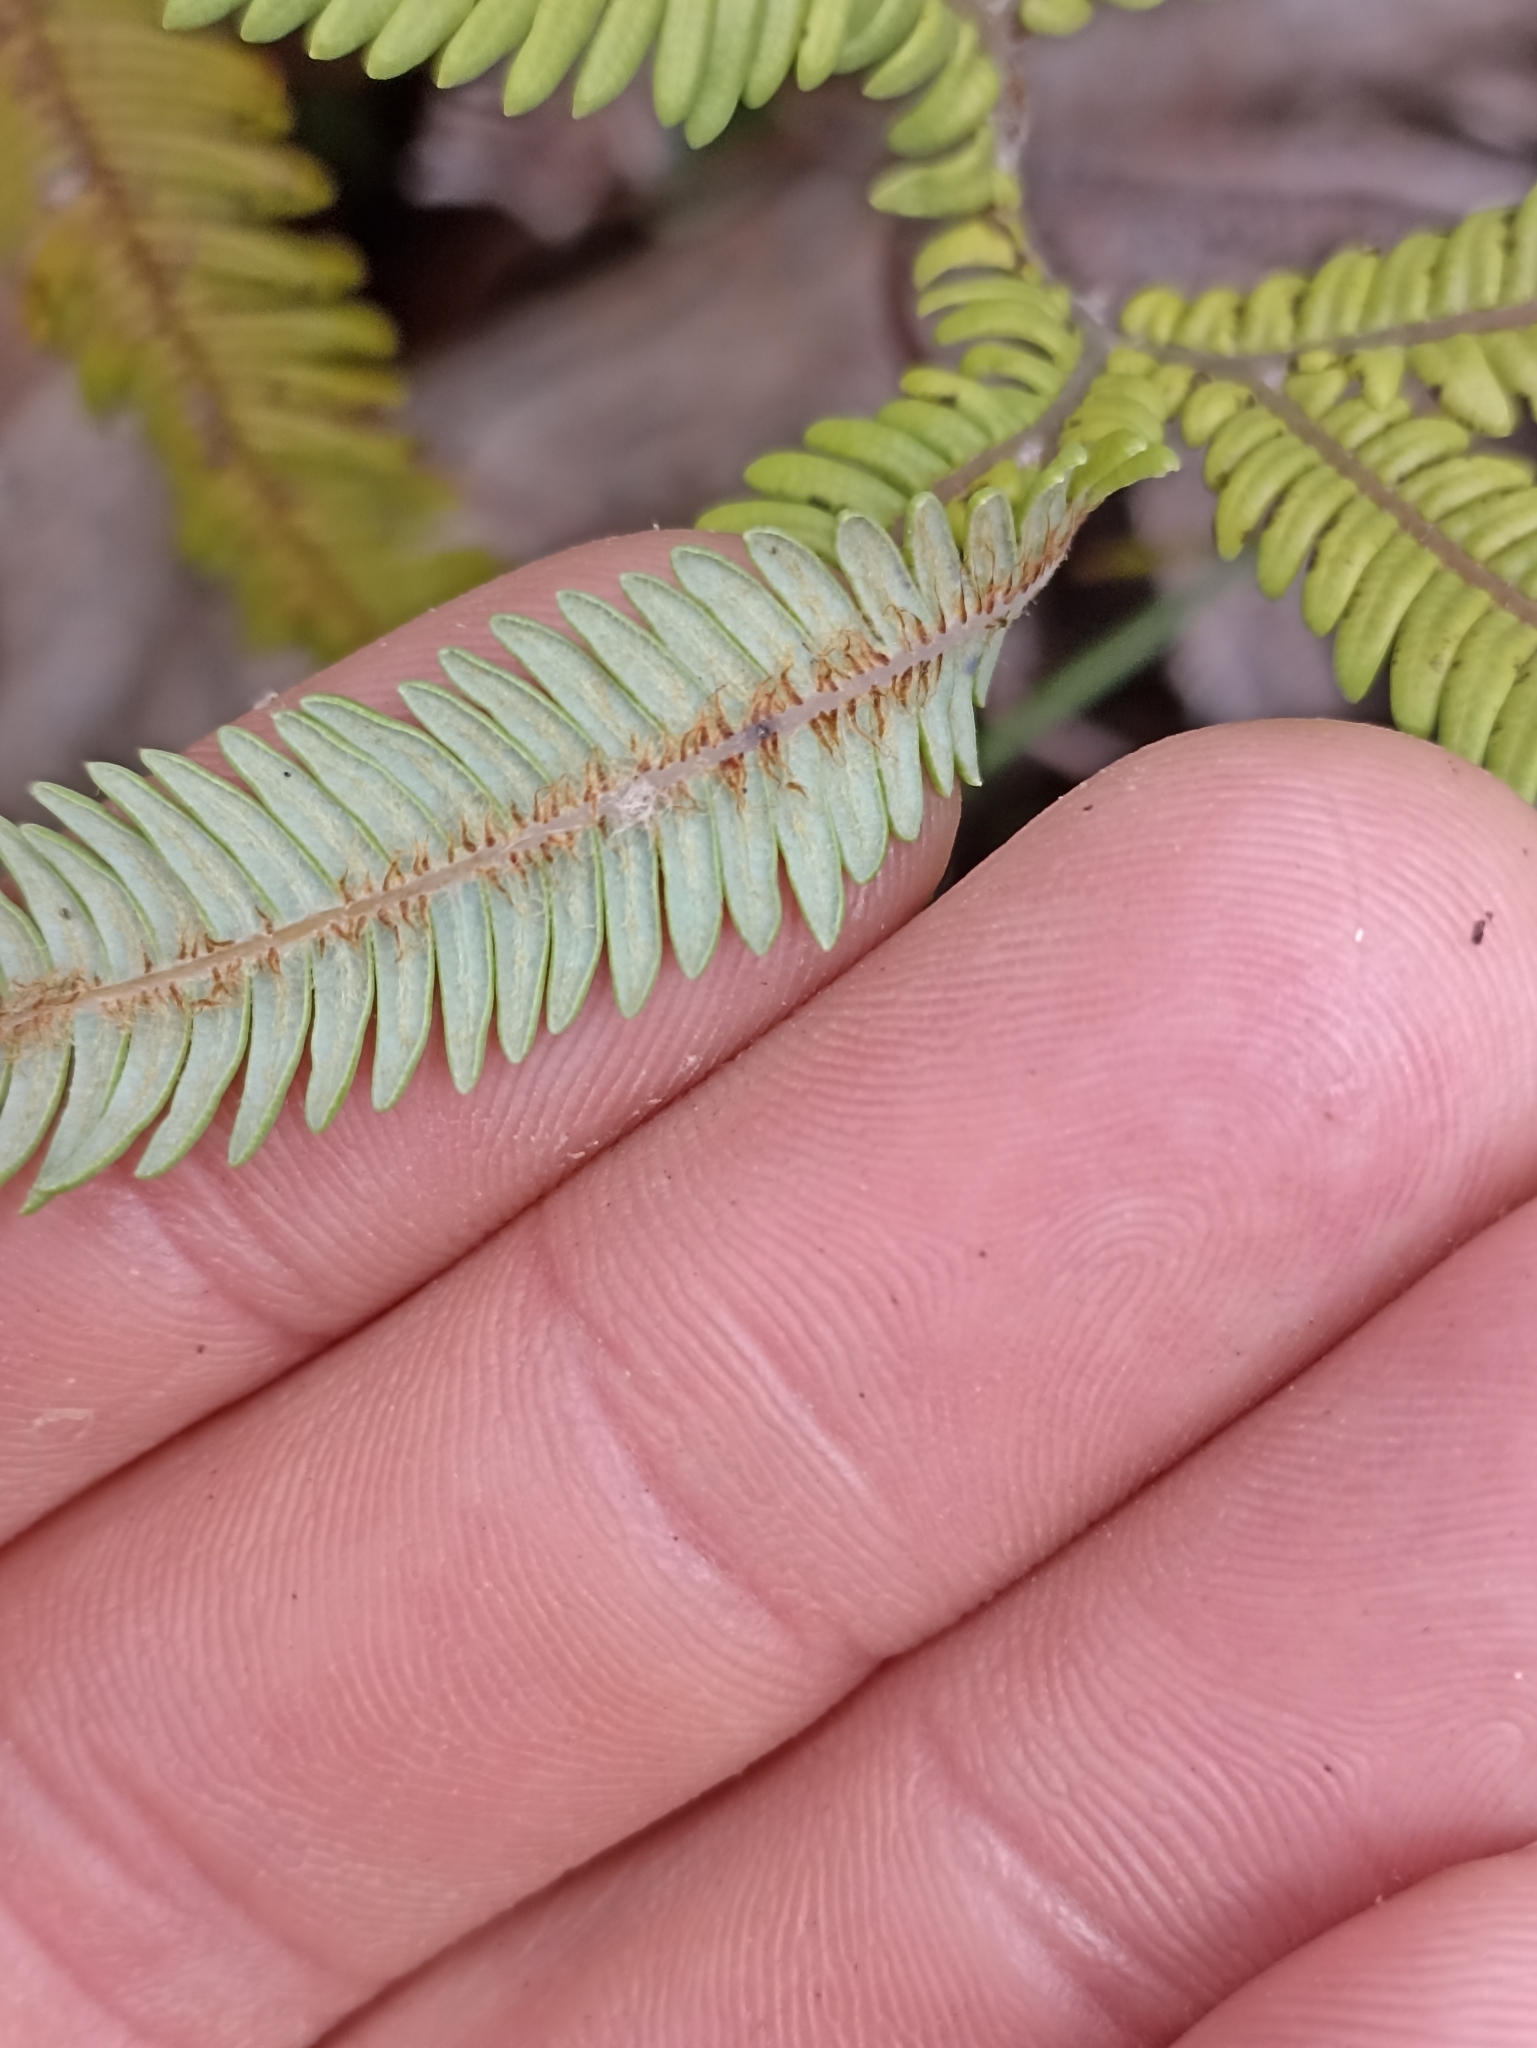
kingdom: Plantae
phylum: Tracheophyta
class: Polypodiopsida
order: Gleicheniales
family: Gleicheniaceae
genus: Sticherus
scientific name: Sticherus cunninghamii
